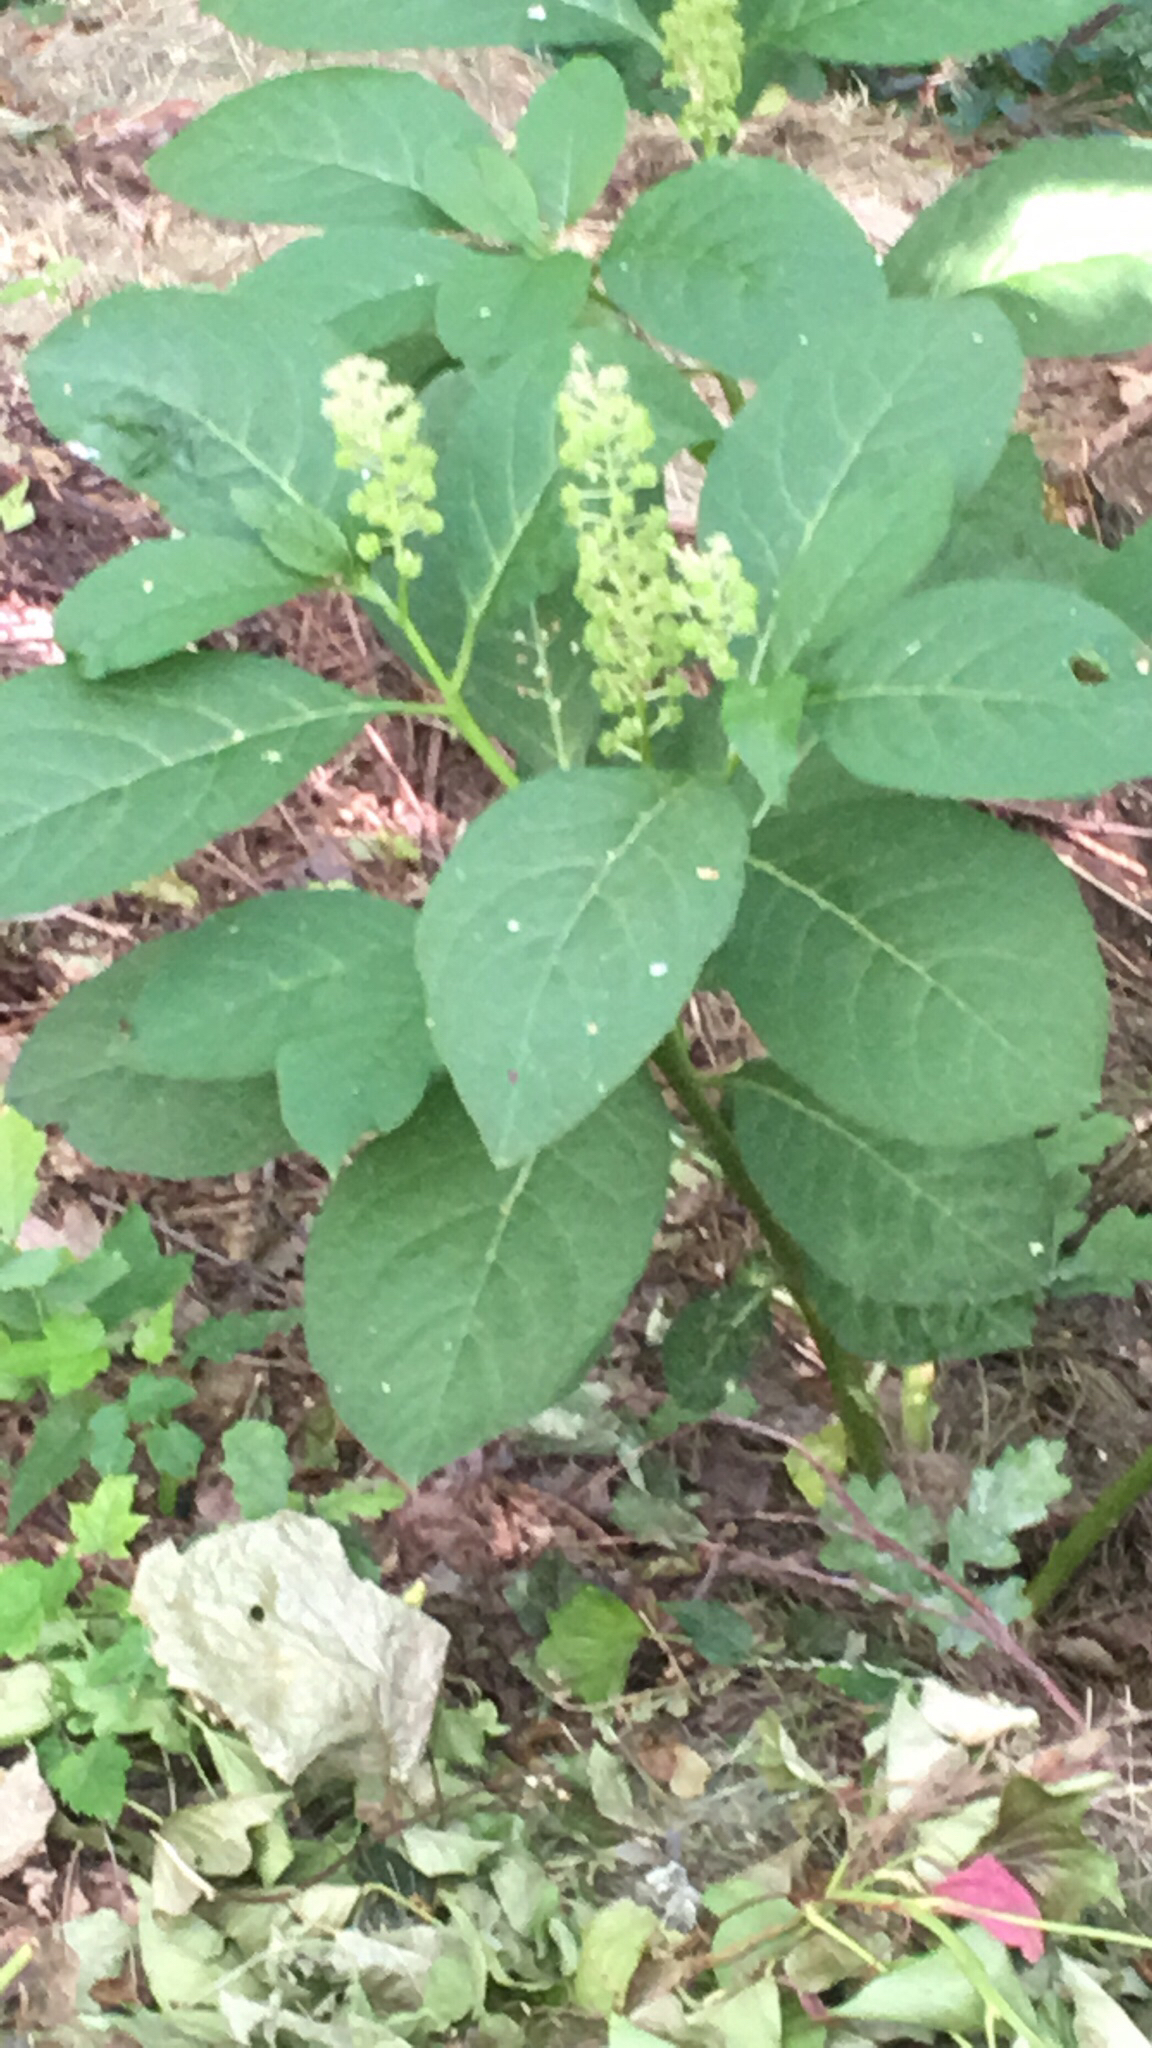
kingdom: Plantae
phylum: Tracheophyta
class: Magnoliopsida
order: Caryophyllales
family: Phytolaccaceae
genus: Phytolacca
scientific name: Phytolacca acinosa
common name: Indian pokeweed
